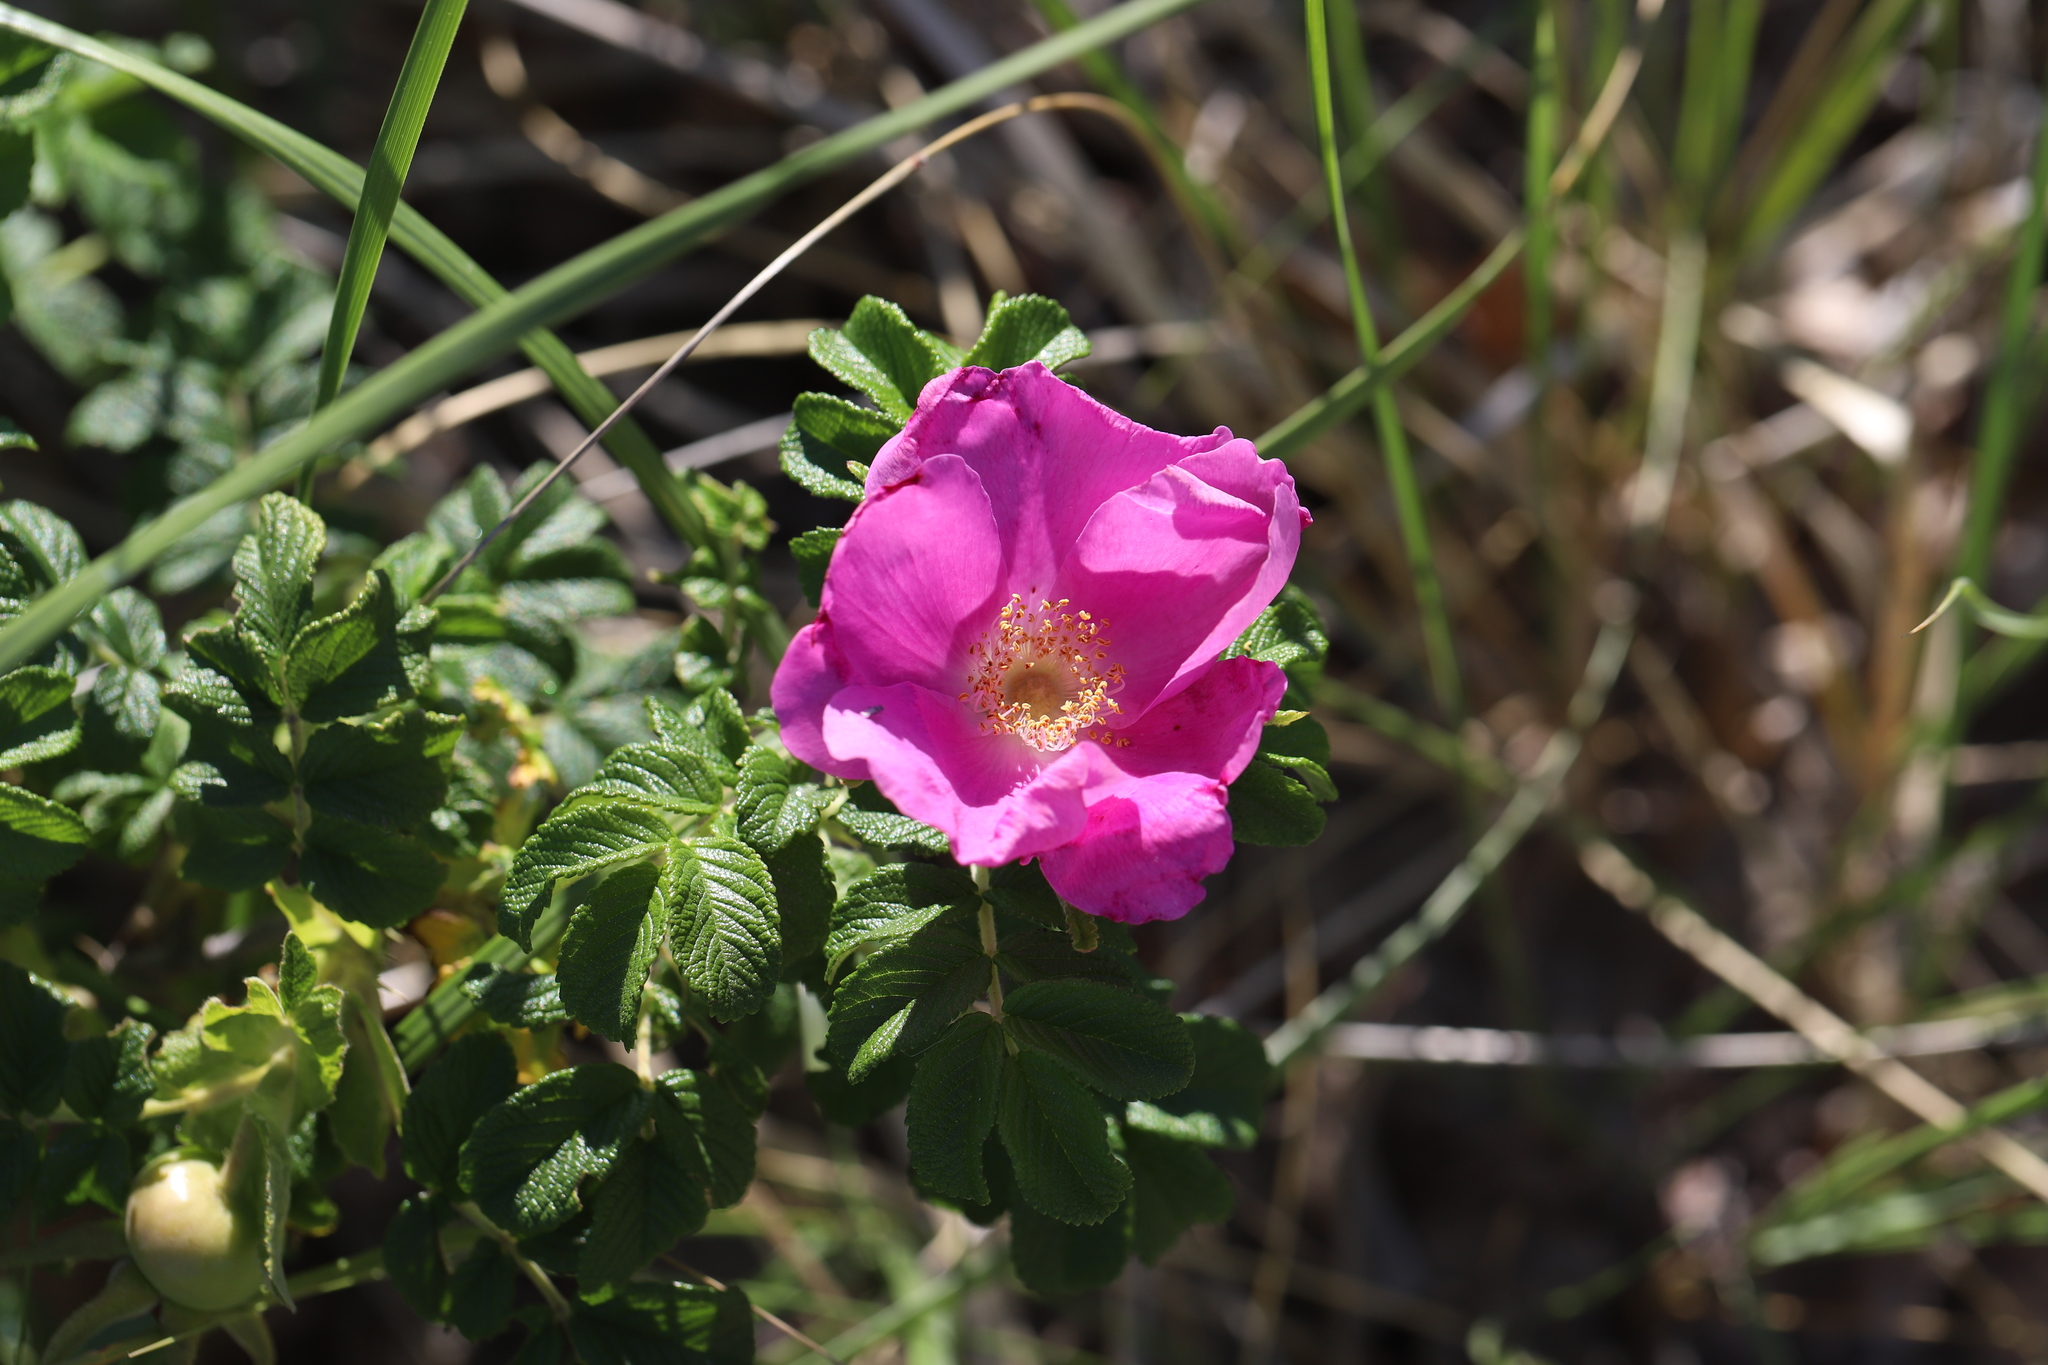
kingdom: Plantae
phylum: Tracheophyta
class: Magnoliopsida
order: Rosales
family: Rosaceae
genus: Rosa
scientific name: Rosa rugosa
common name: Japanese rose
